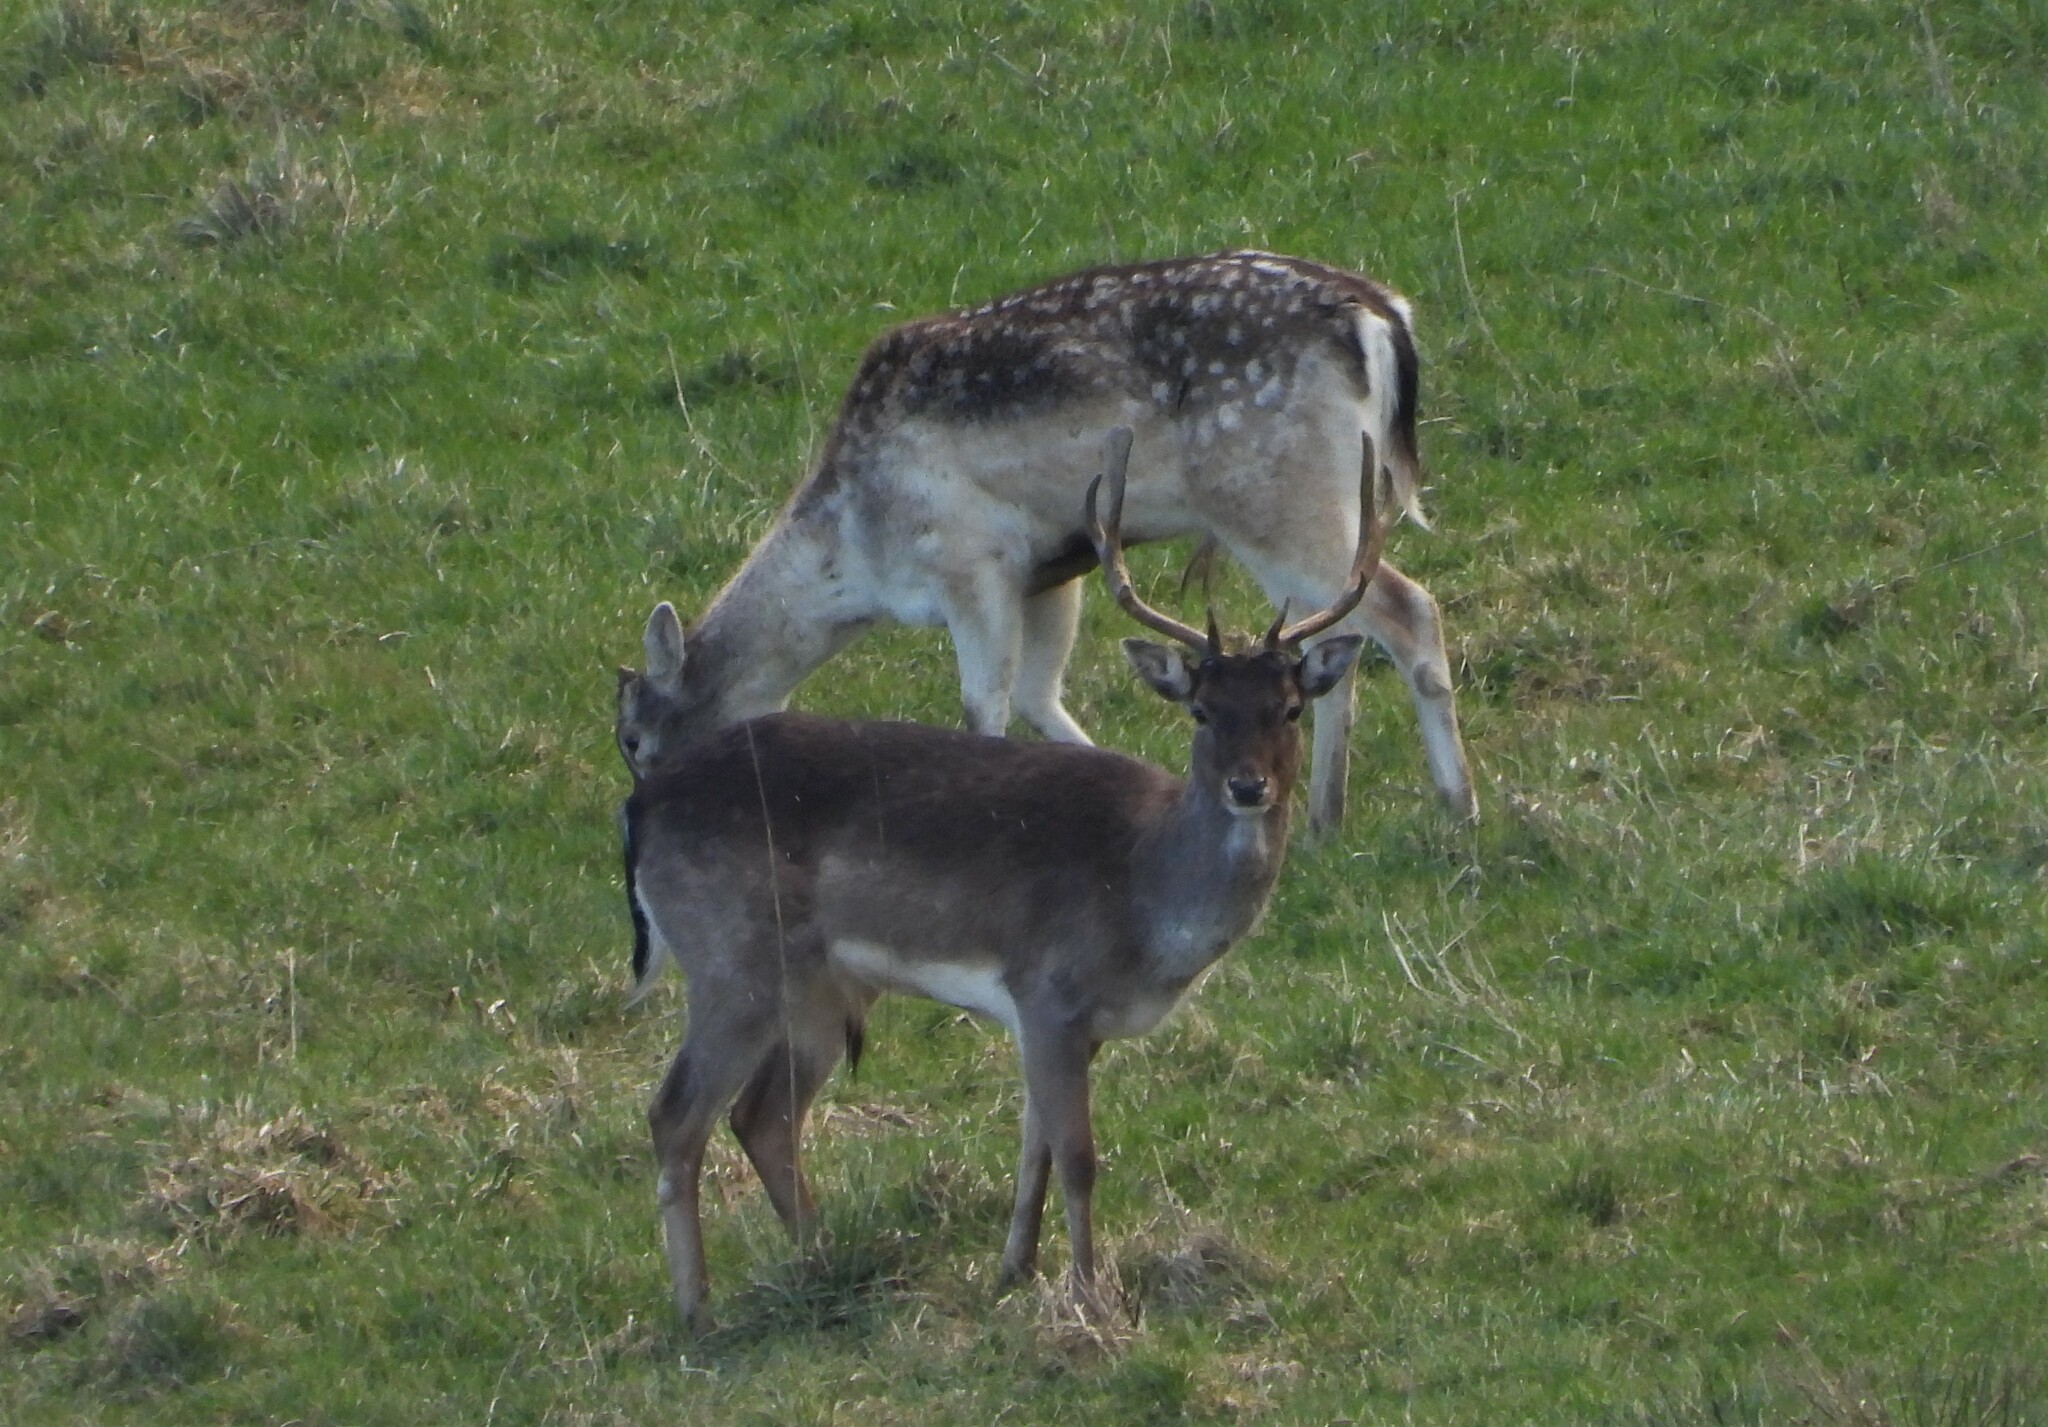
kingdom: Animalia
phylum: Chordata
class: Mammalia
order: Artiodactyla
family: Cervidae
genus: Dama
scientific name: Dama dama
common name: Fallow deer
